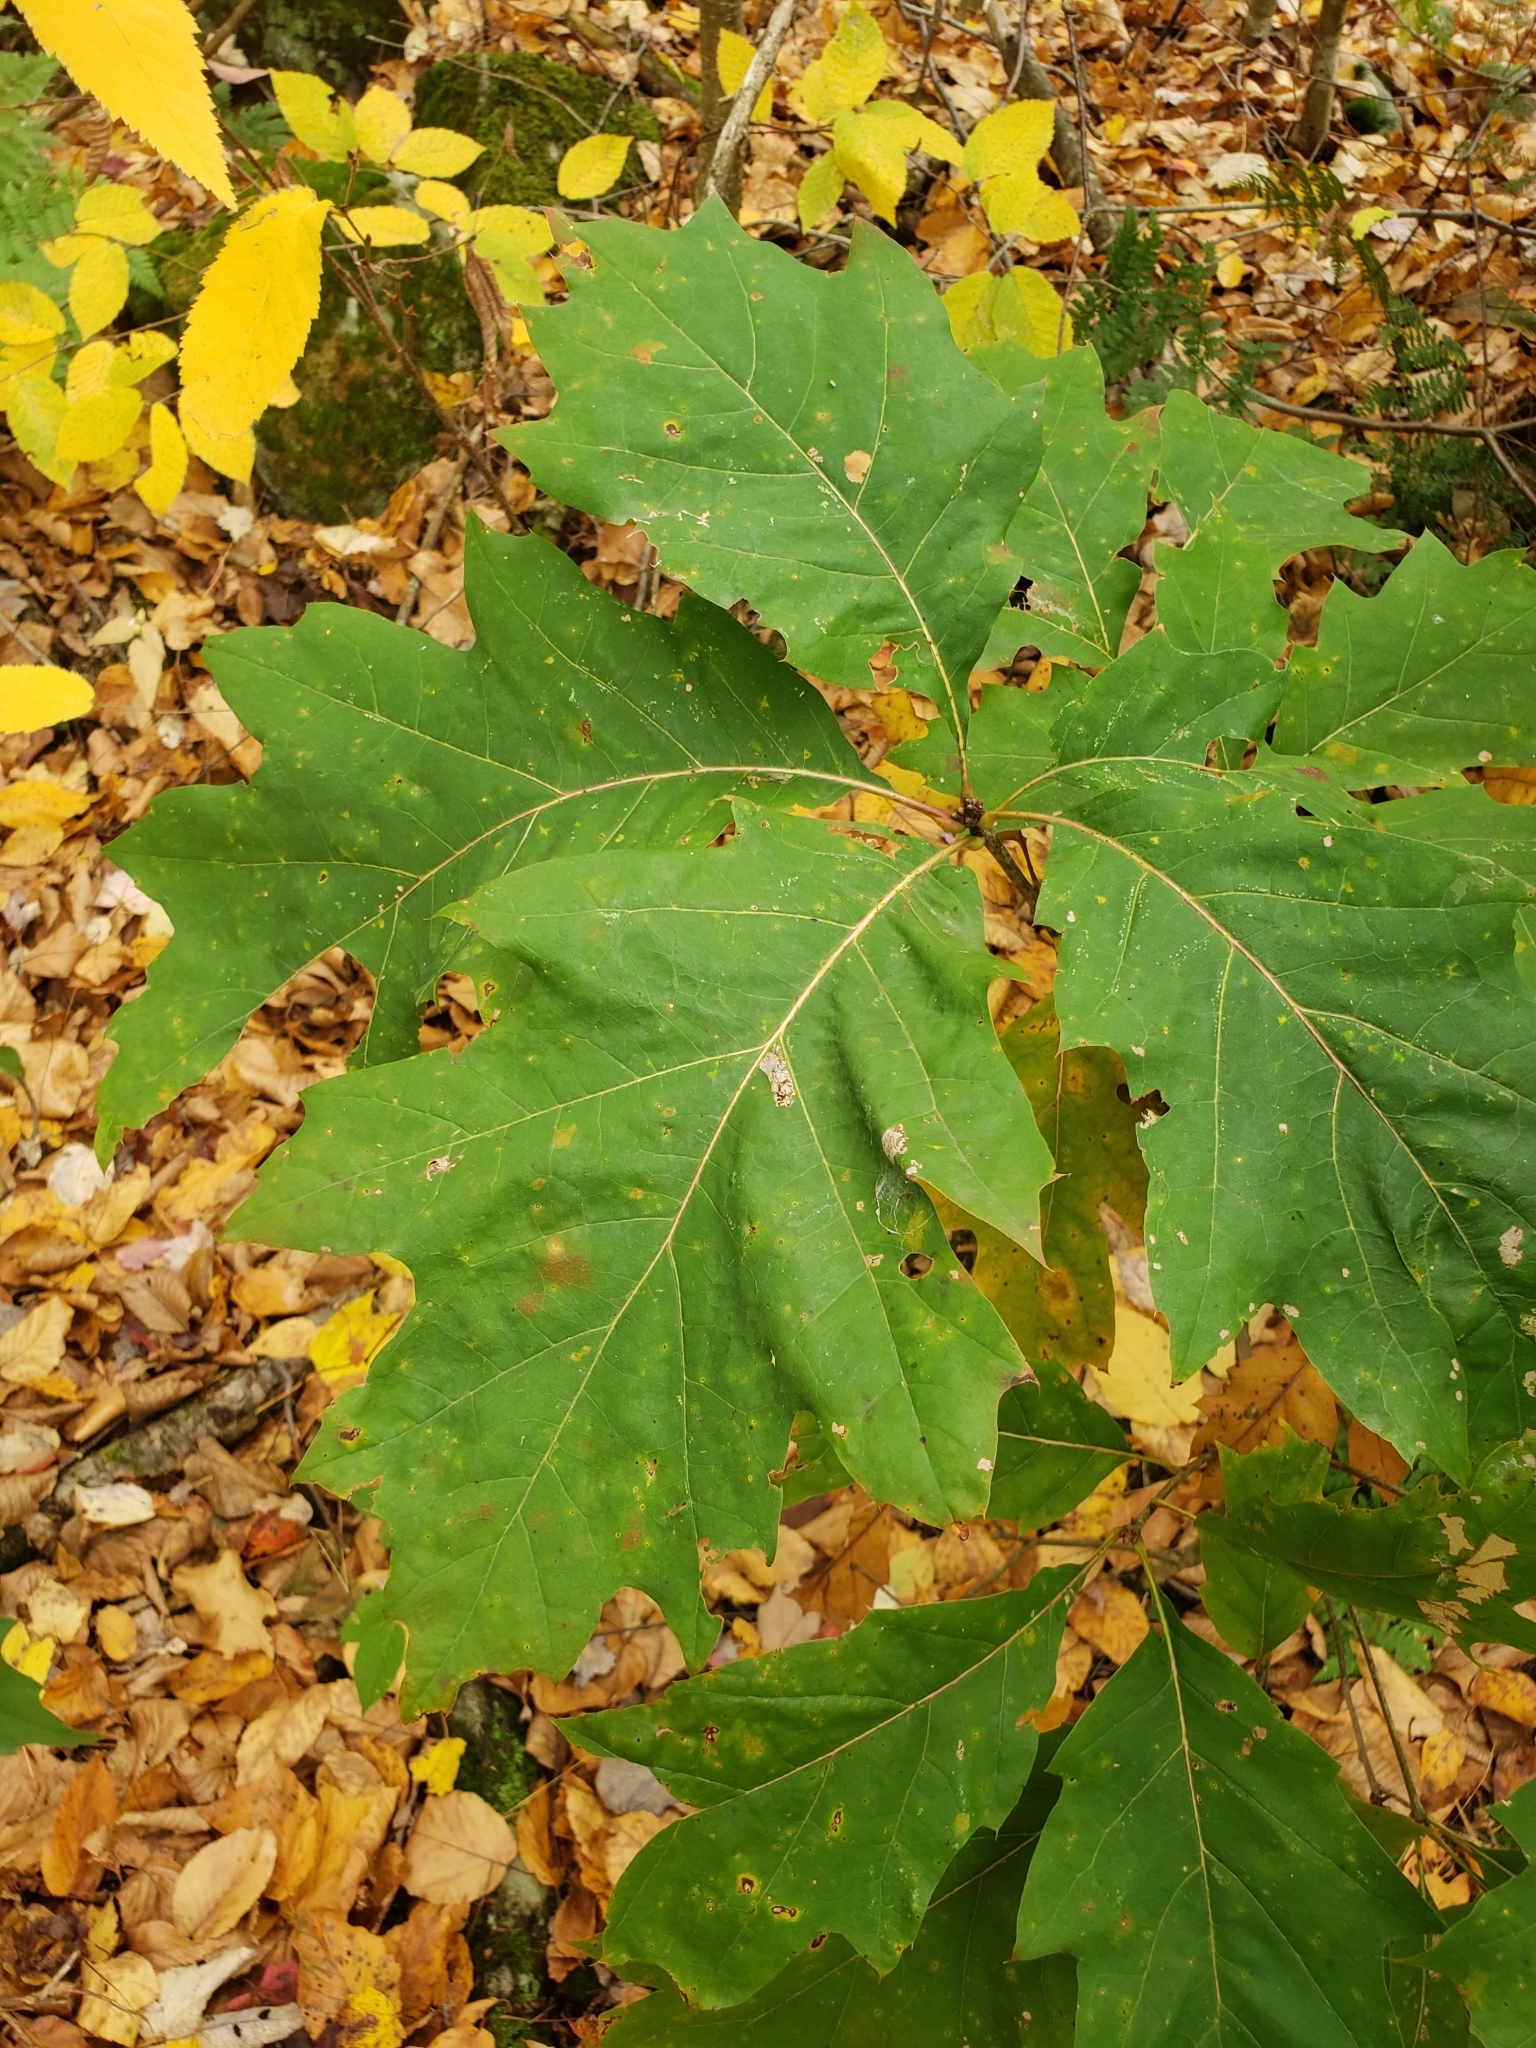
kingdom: Plantae
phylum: Tracheophyta
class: Magnoliopsida
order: Fagales
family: Fagaceae
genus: Quercus
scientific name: Quercus rubra
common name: Red oak
